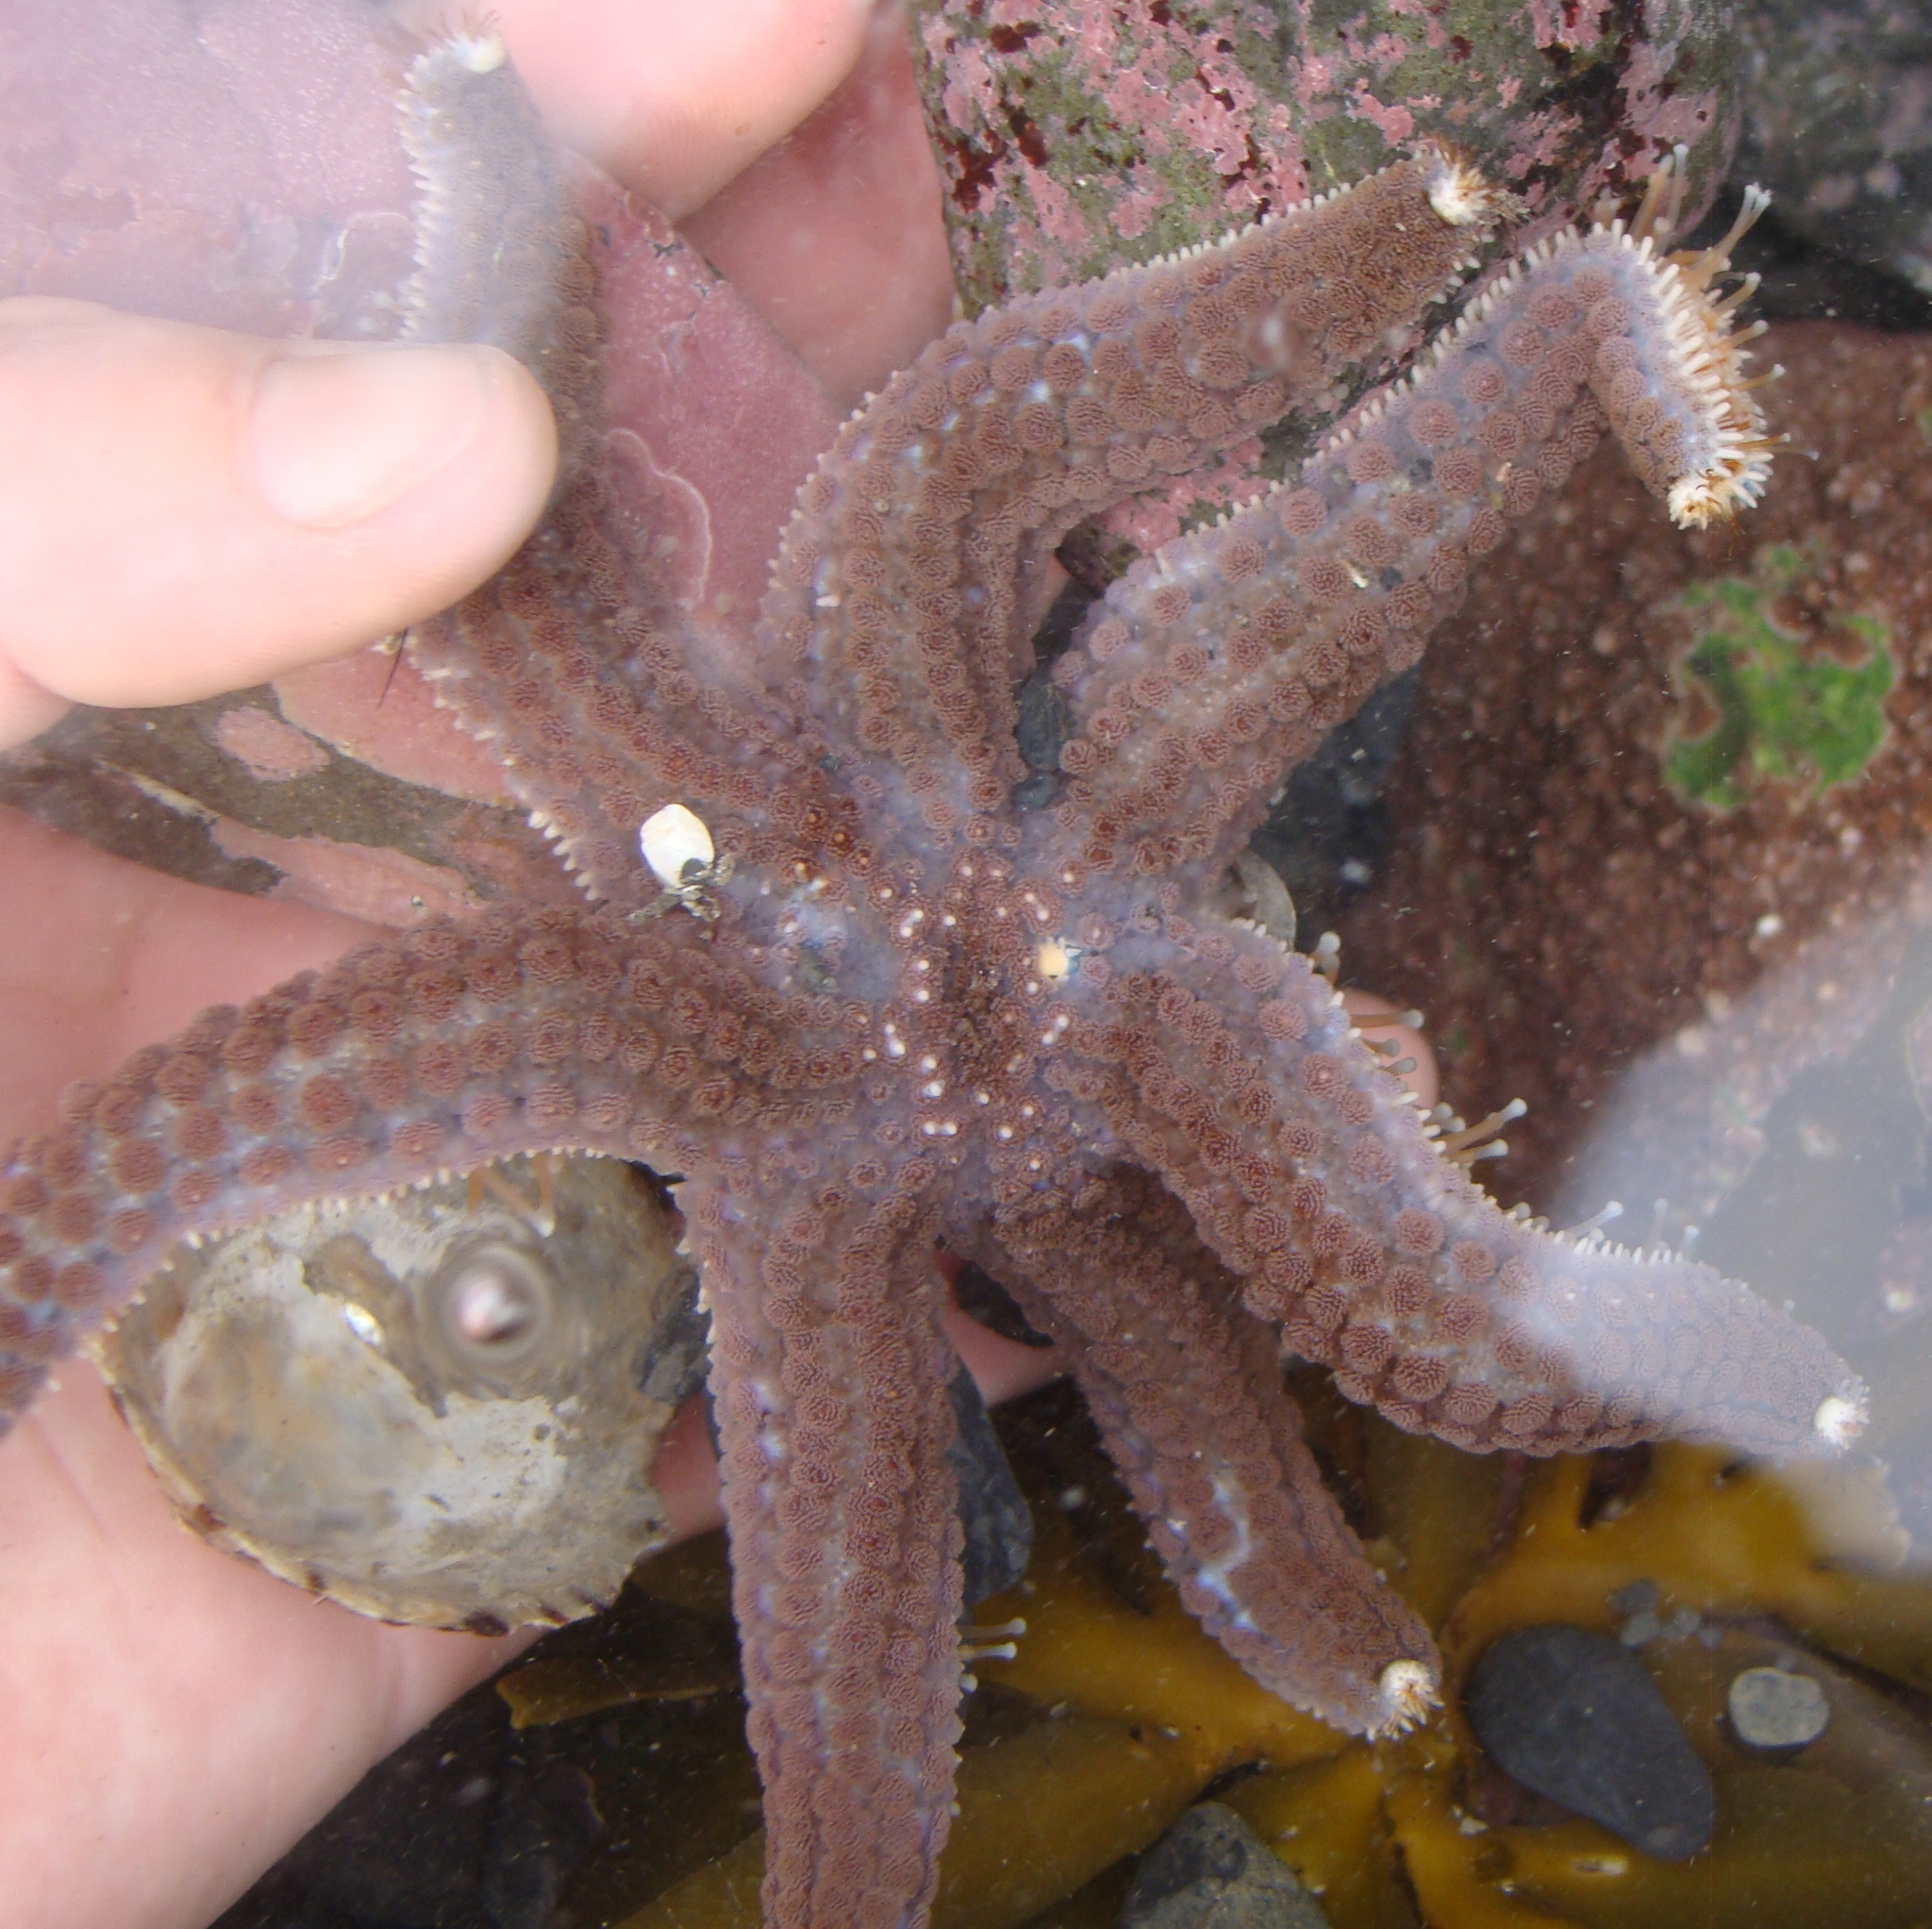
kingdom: Animalia
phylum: Echinodermata
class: Asteroidea
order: Forcipulatida
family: Asteriidae
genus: Astrostole
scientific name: Astrostole scabra
